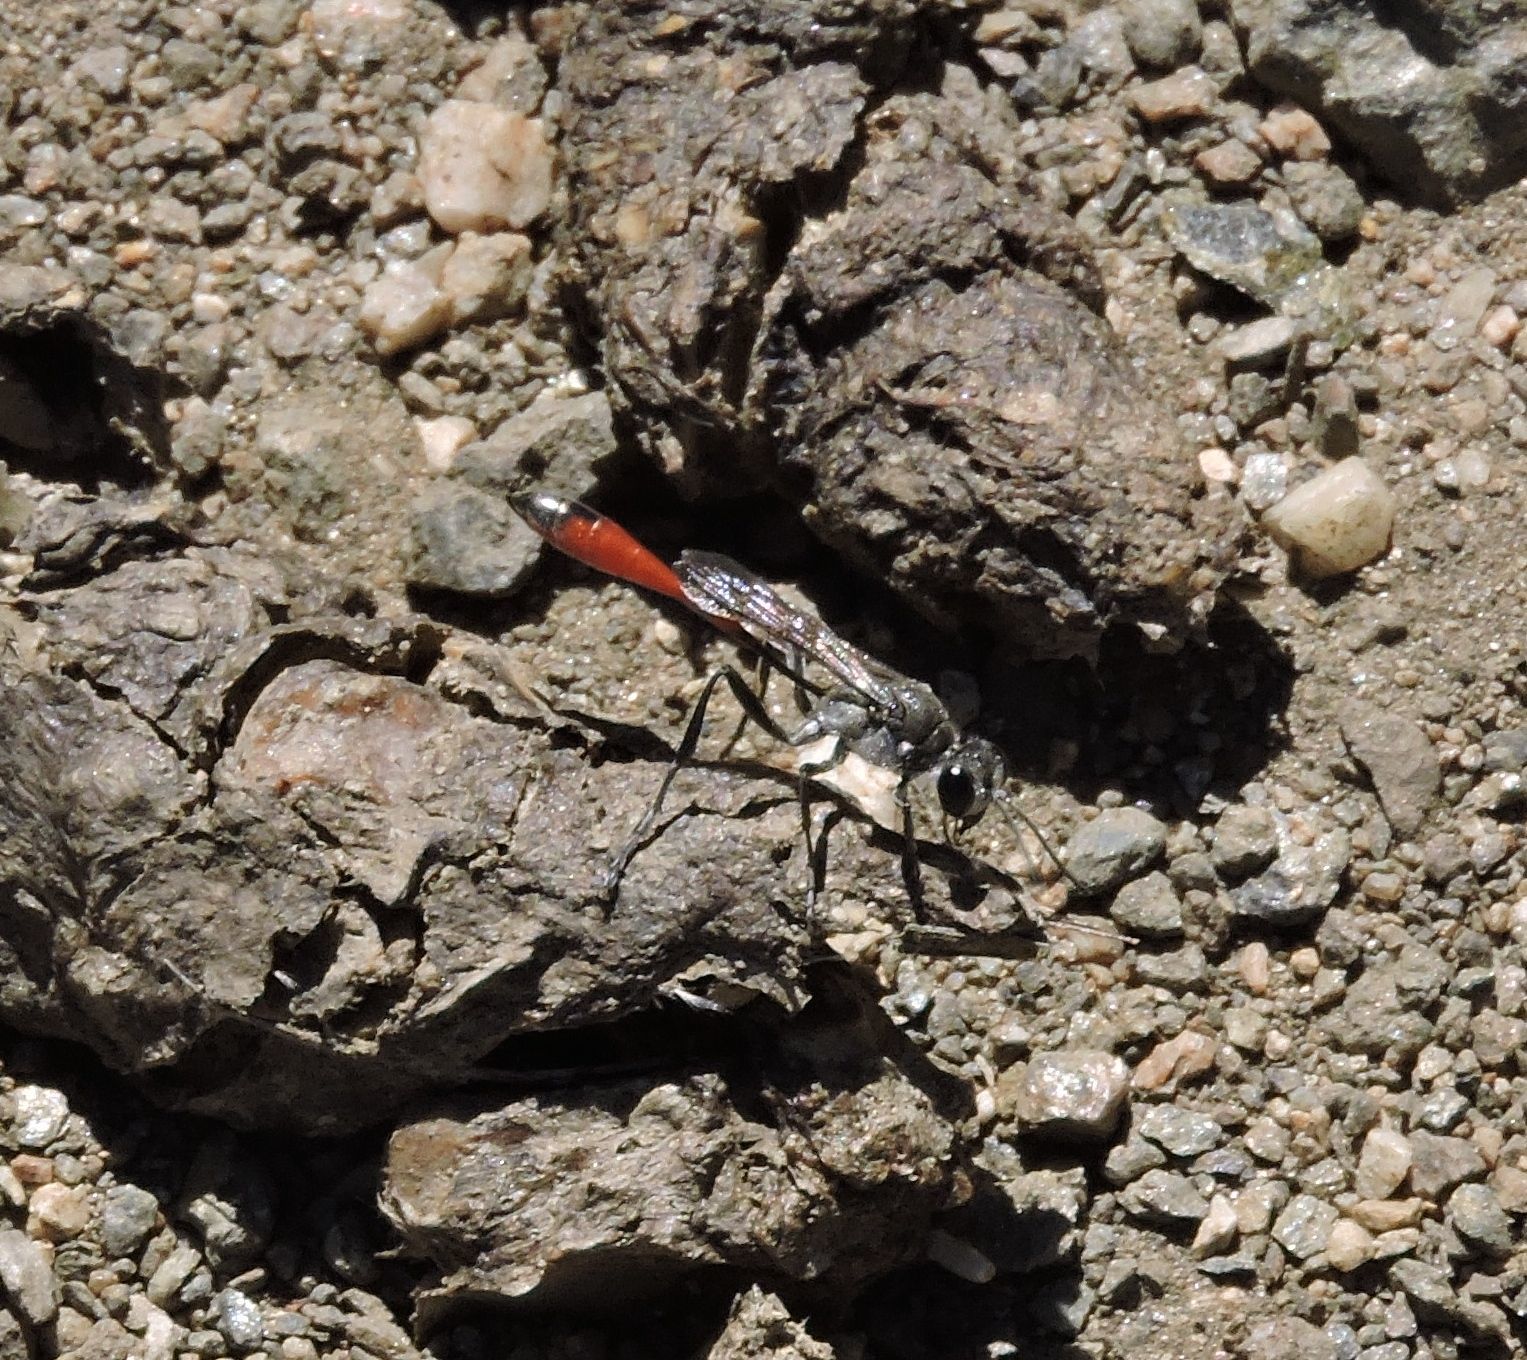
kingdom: Animalia
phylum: Arthropoda
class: Insecta
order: Hymenoptera
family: Sphecidae
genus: Ammophila
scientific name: Ammophila
